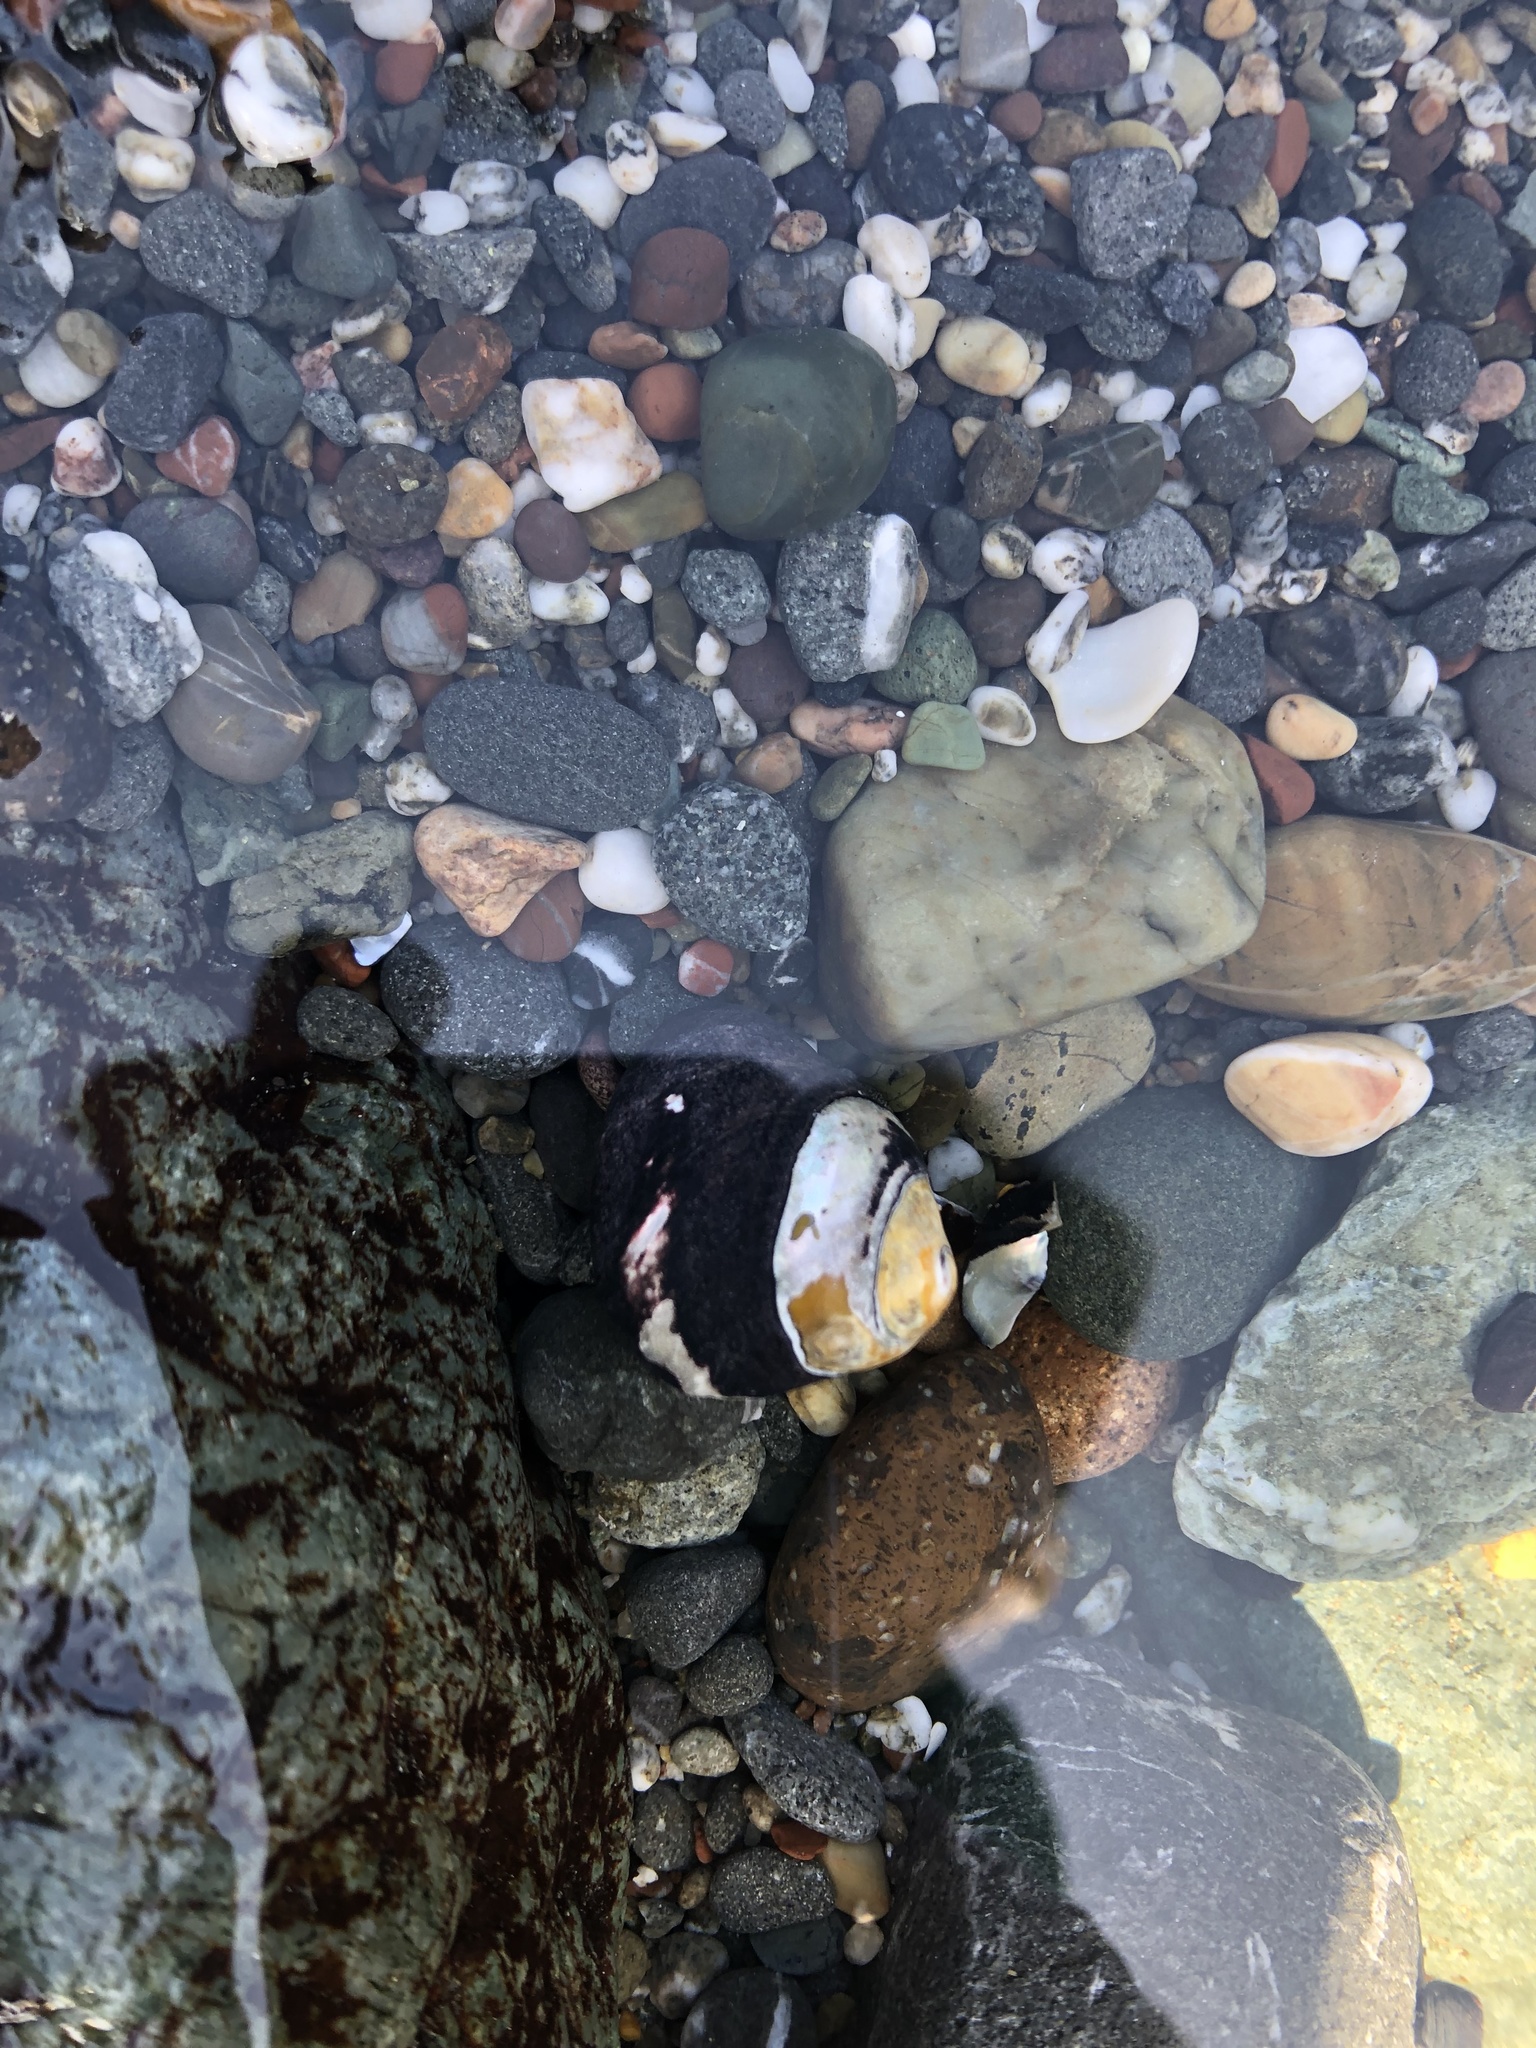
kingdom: Animalia
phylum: Mollusca
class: Gastropoda
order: Trochida
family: Tegulidae
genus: Tegula
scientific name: Tegula funebralis
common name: Black tegula
